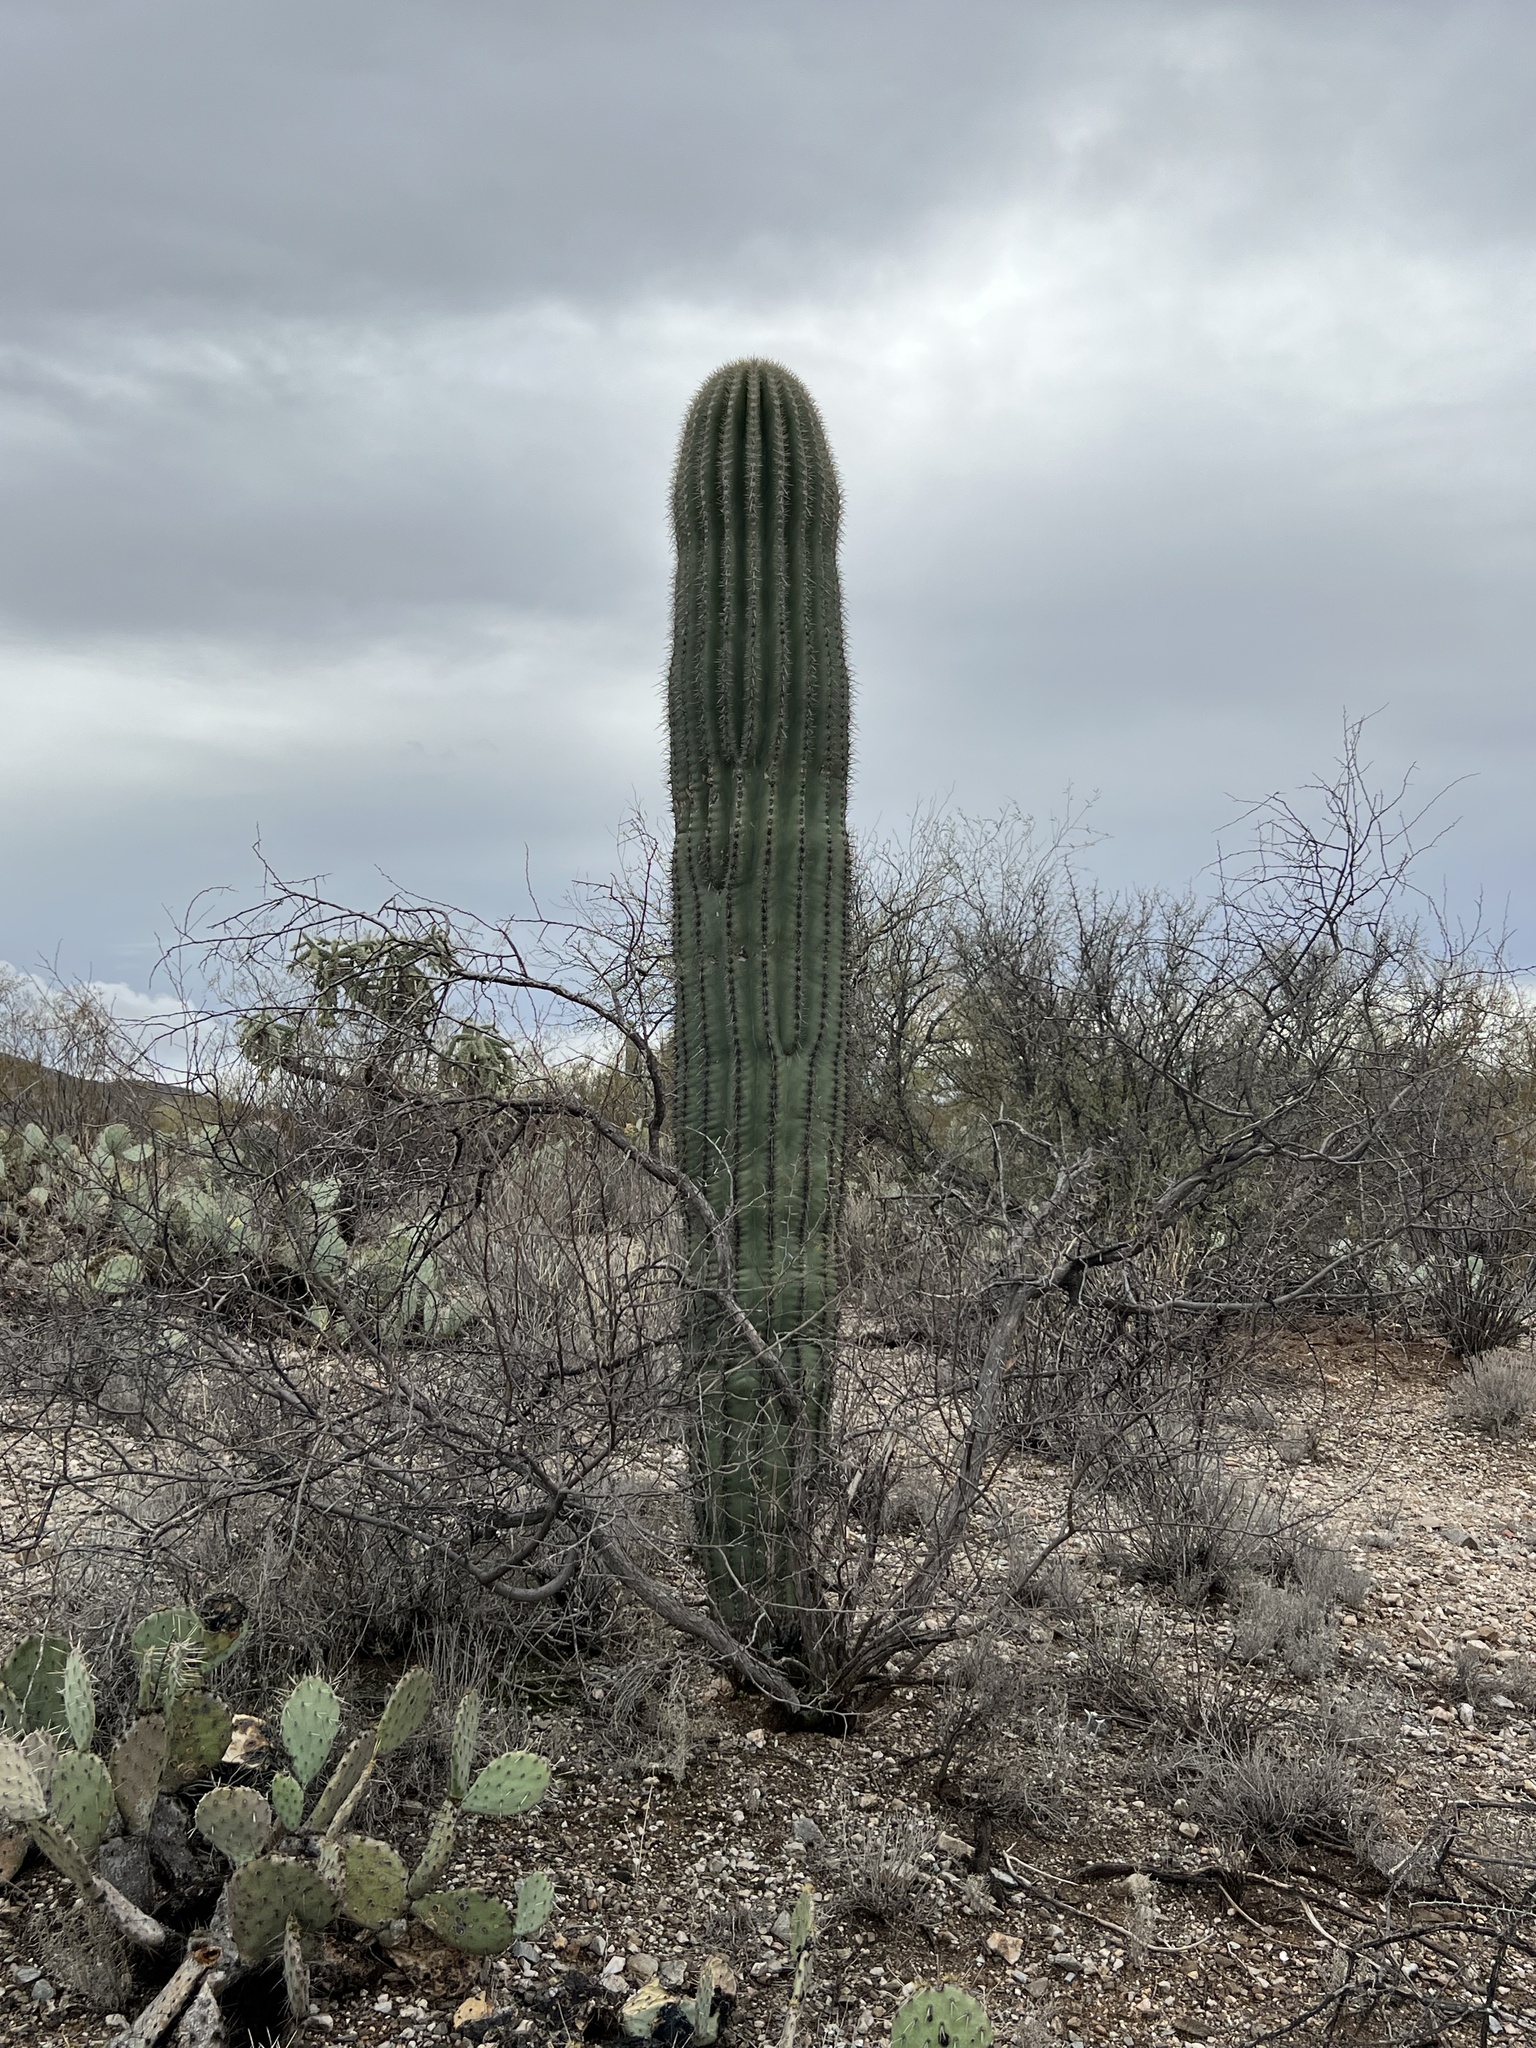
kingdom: Plantae
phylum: Tracheophyta
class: Magnoliopsida
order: Caryophyllales
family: Cactaceae
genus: Carnegiea
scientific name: Carnegiea gigantea
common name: Saguaro
